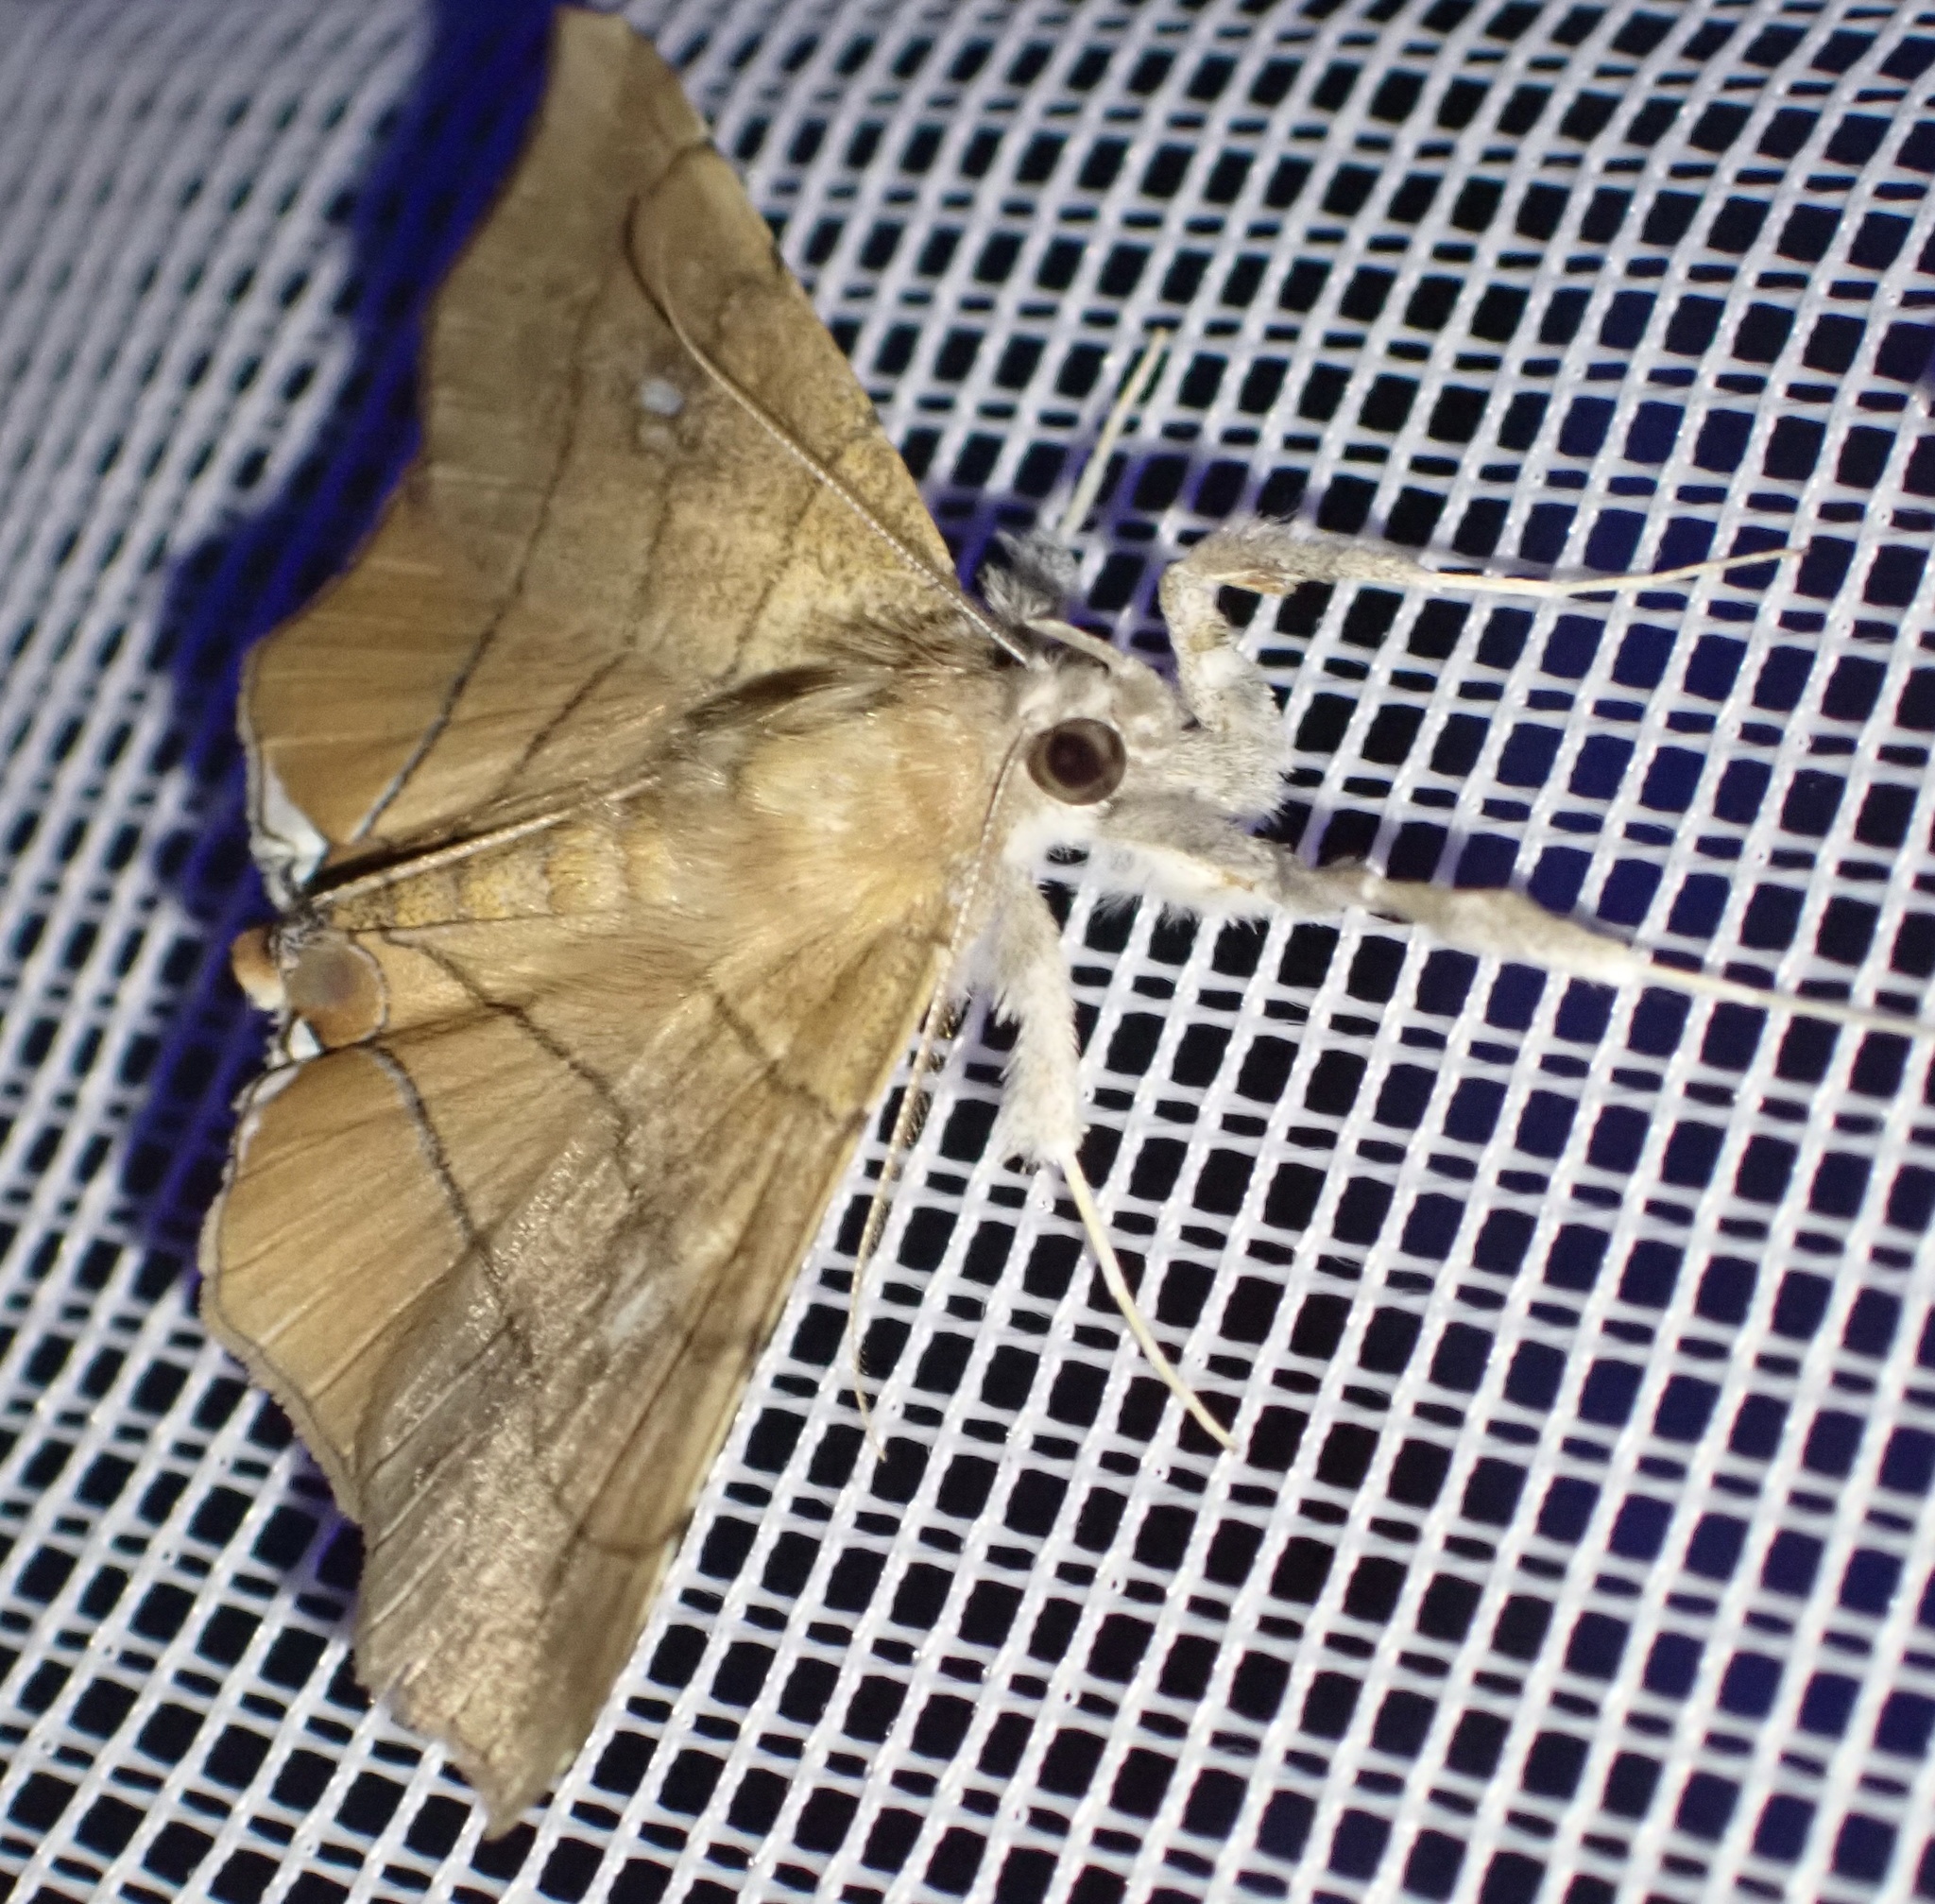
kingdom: Animalia
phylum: Arthropoda
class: Insecta
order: Lepidoptera
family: Erebidae
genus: Gracilodes
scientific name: Gracilodes caffra
